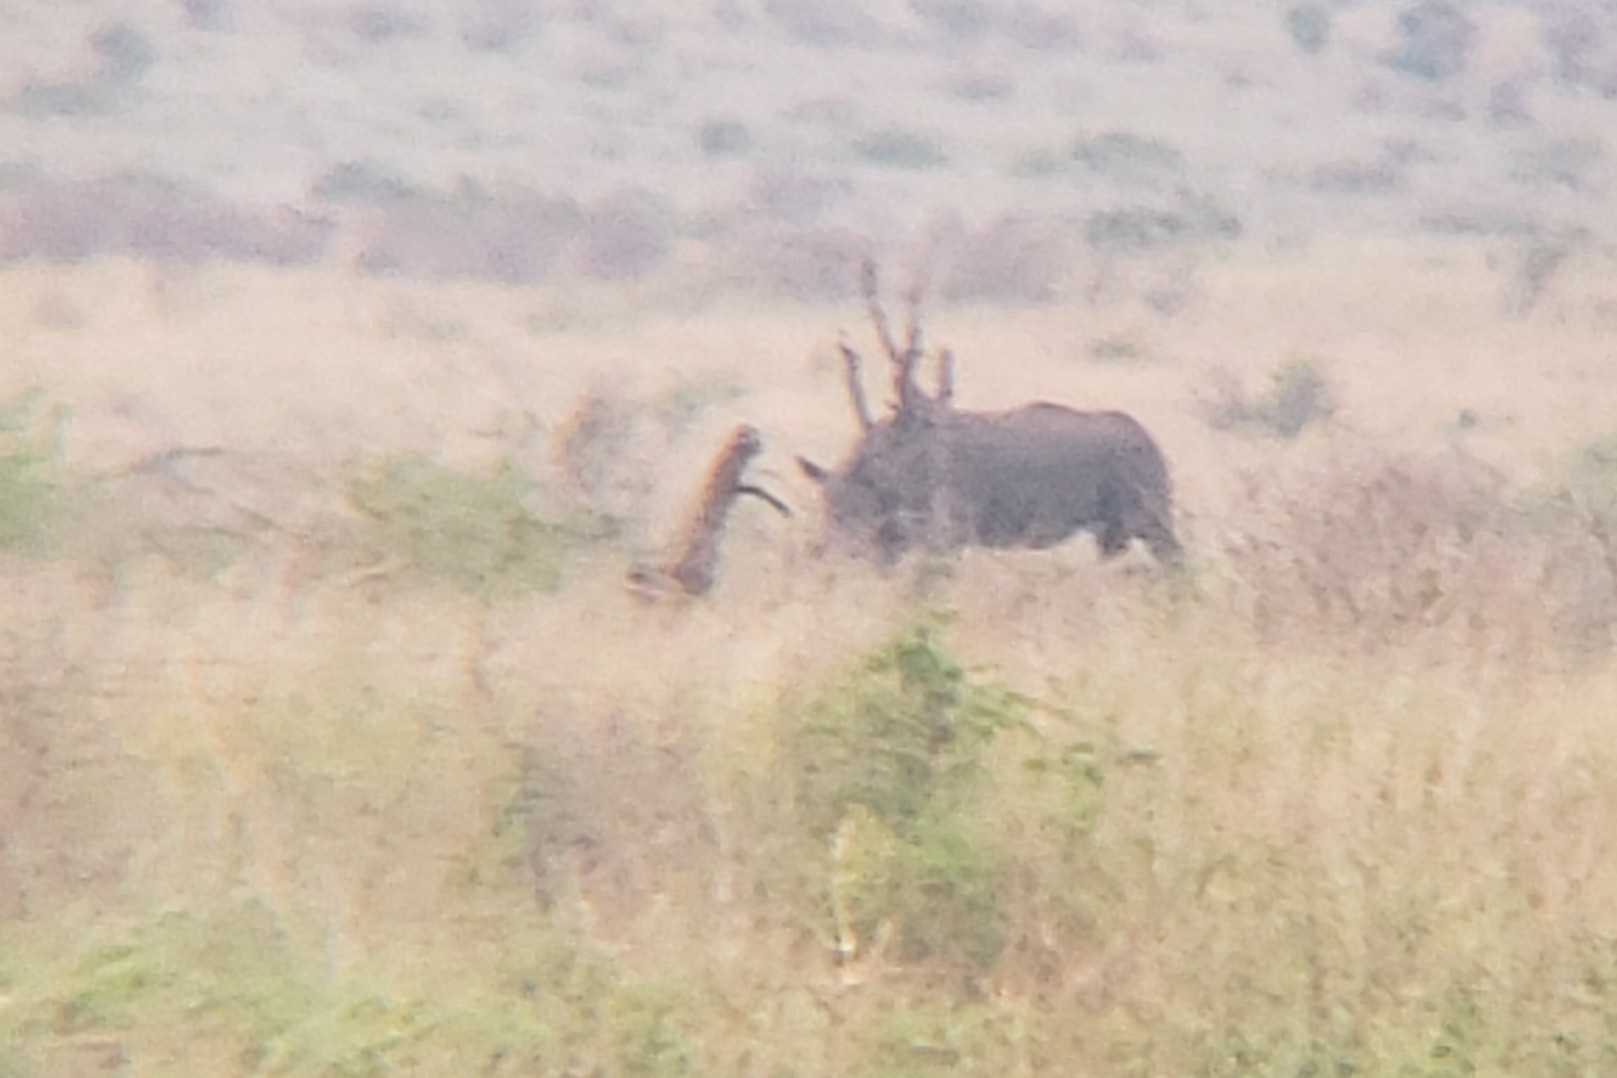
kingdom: Animalia
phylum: Chordata
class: Mammalia
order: Perissodactyla
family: Rhinocerotidae
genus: Ceratotherium
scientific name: Ceratotherium simum
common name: White rhinoceros
